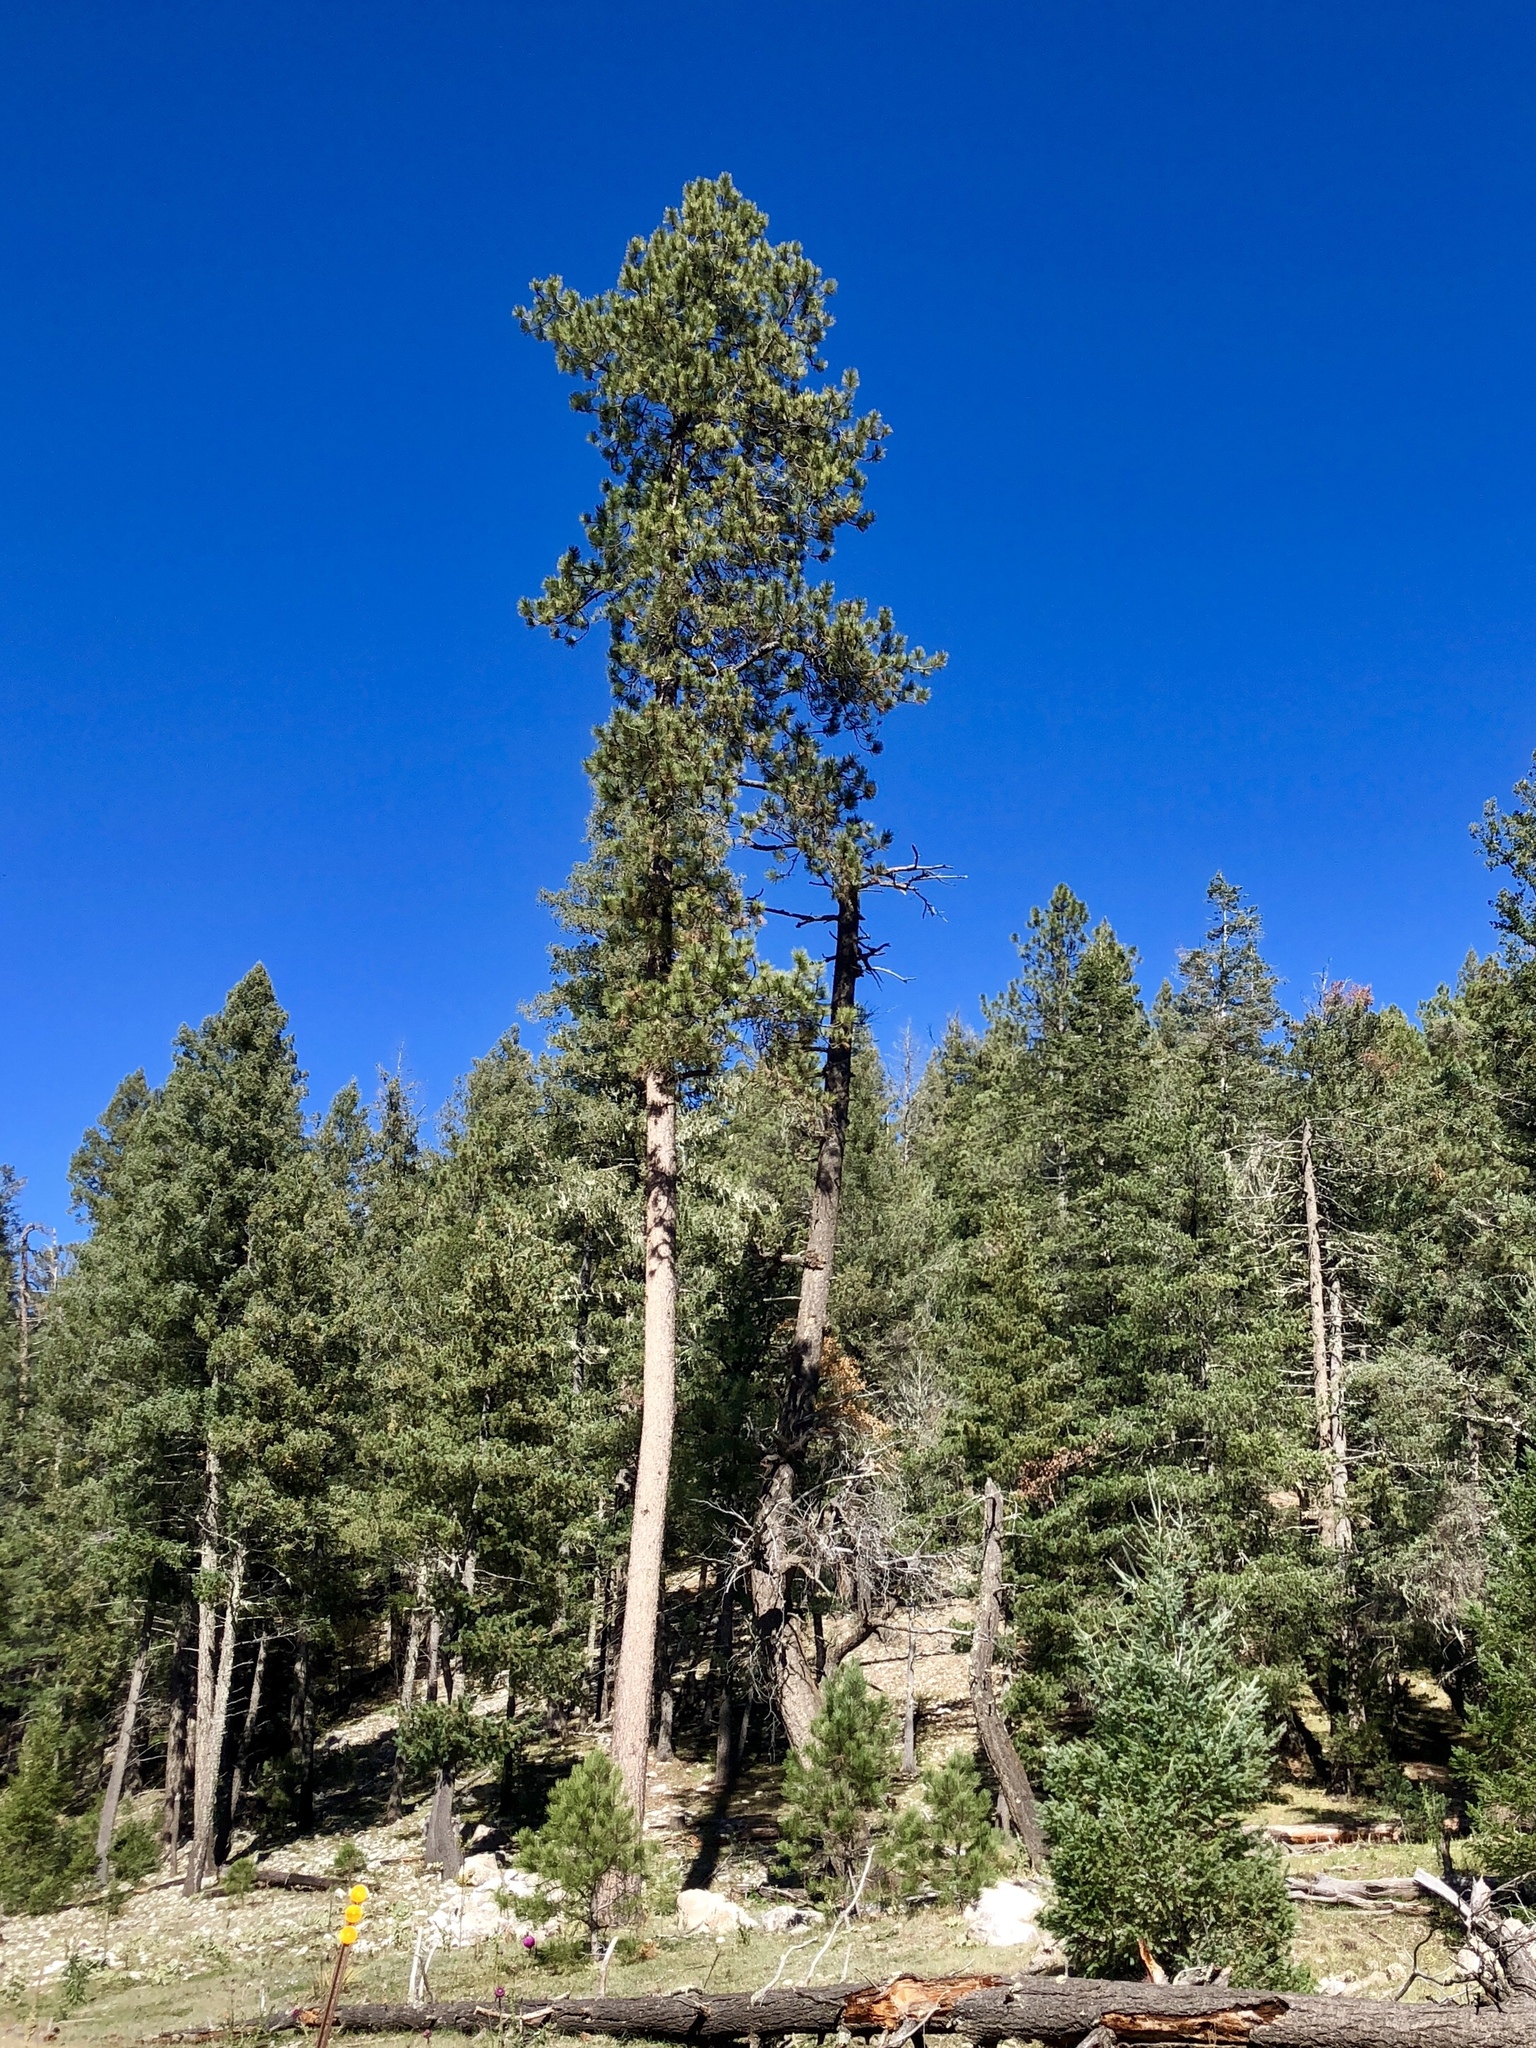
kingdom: Plantae
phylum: Tracheophyta
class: Pinopsida
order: Pinales
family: Pinaceae
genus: Pinus
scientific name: Pinus ponderosa
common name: Western yellow-pine
